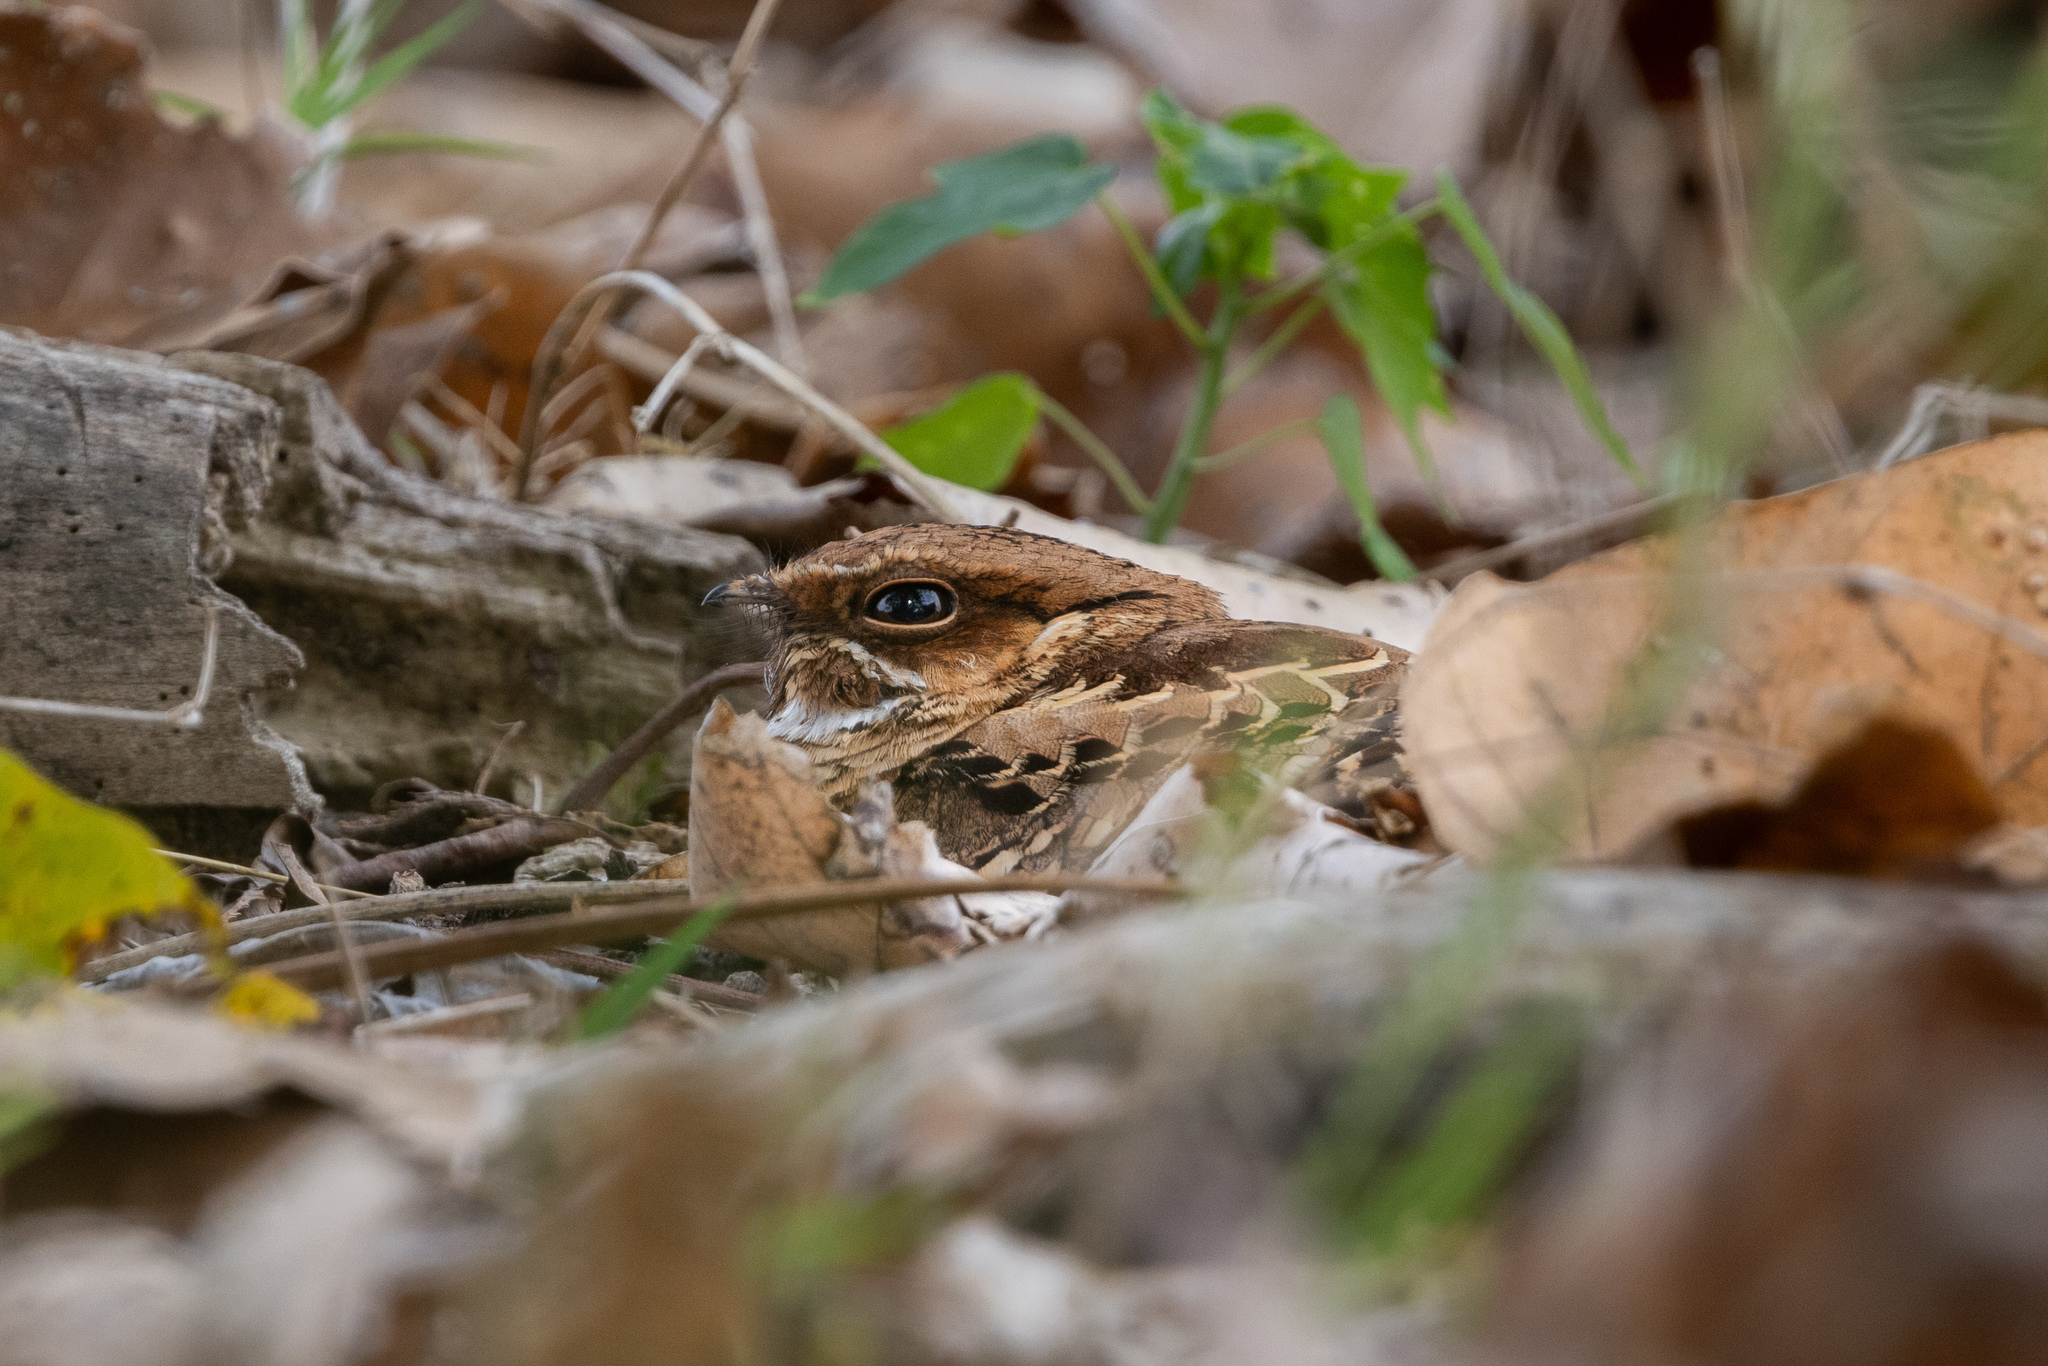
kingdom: Animalia
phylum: Chordata
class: Aves
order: Caprimulgiformes
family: Caprimulgidae
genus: Nyctidromus
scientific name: Nyctidromus albicollis
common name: Pauraque
